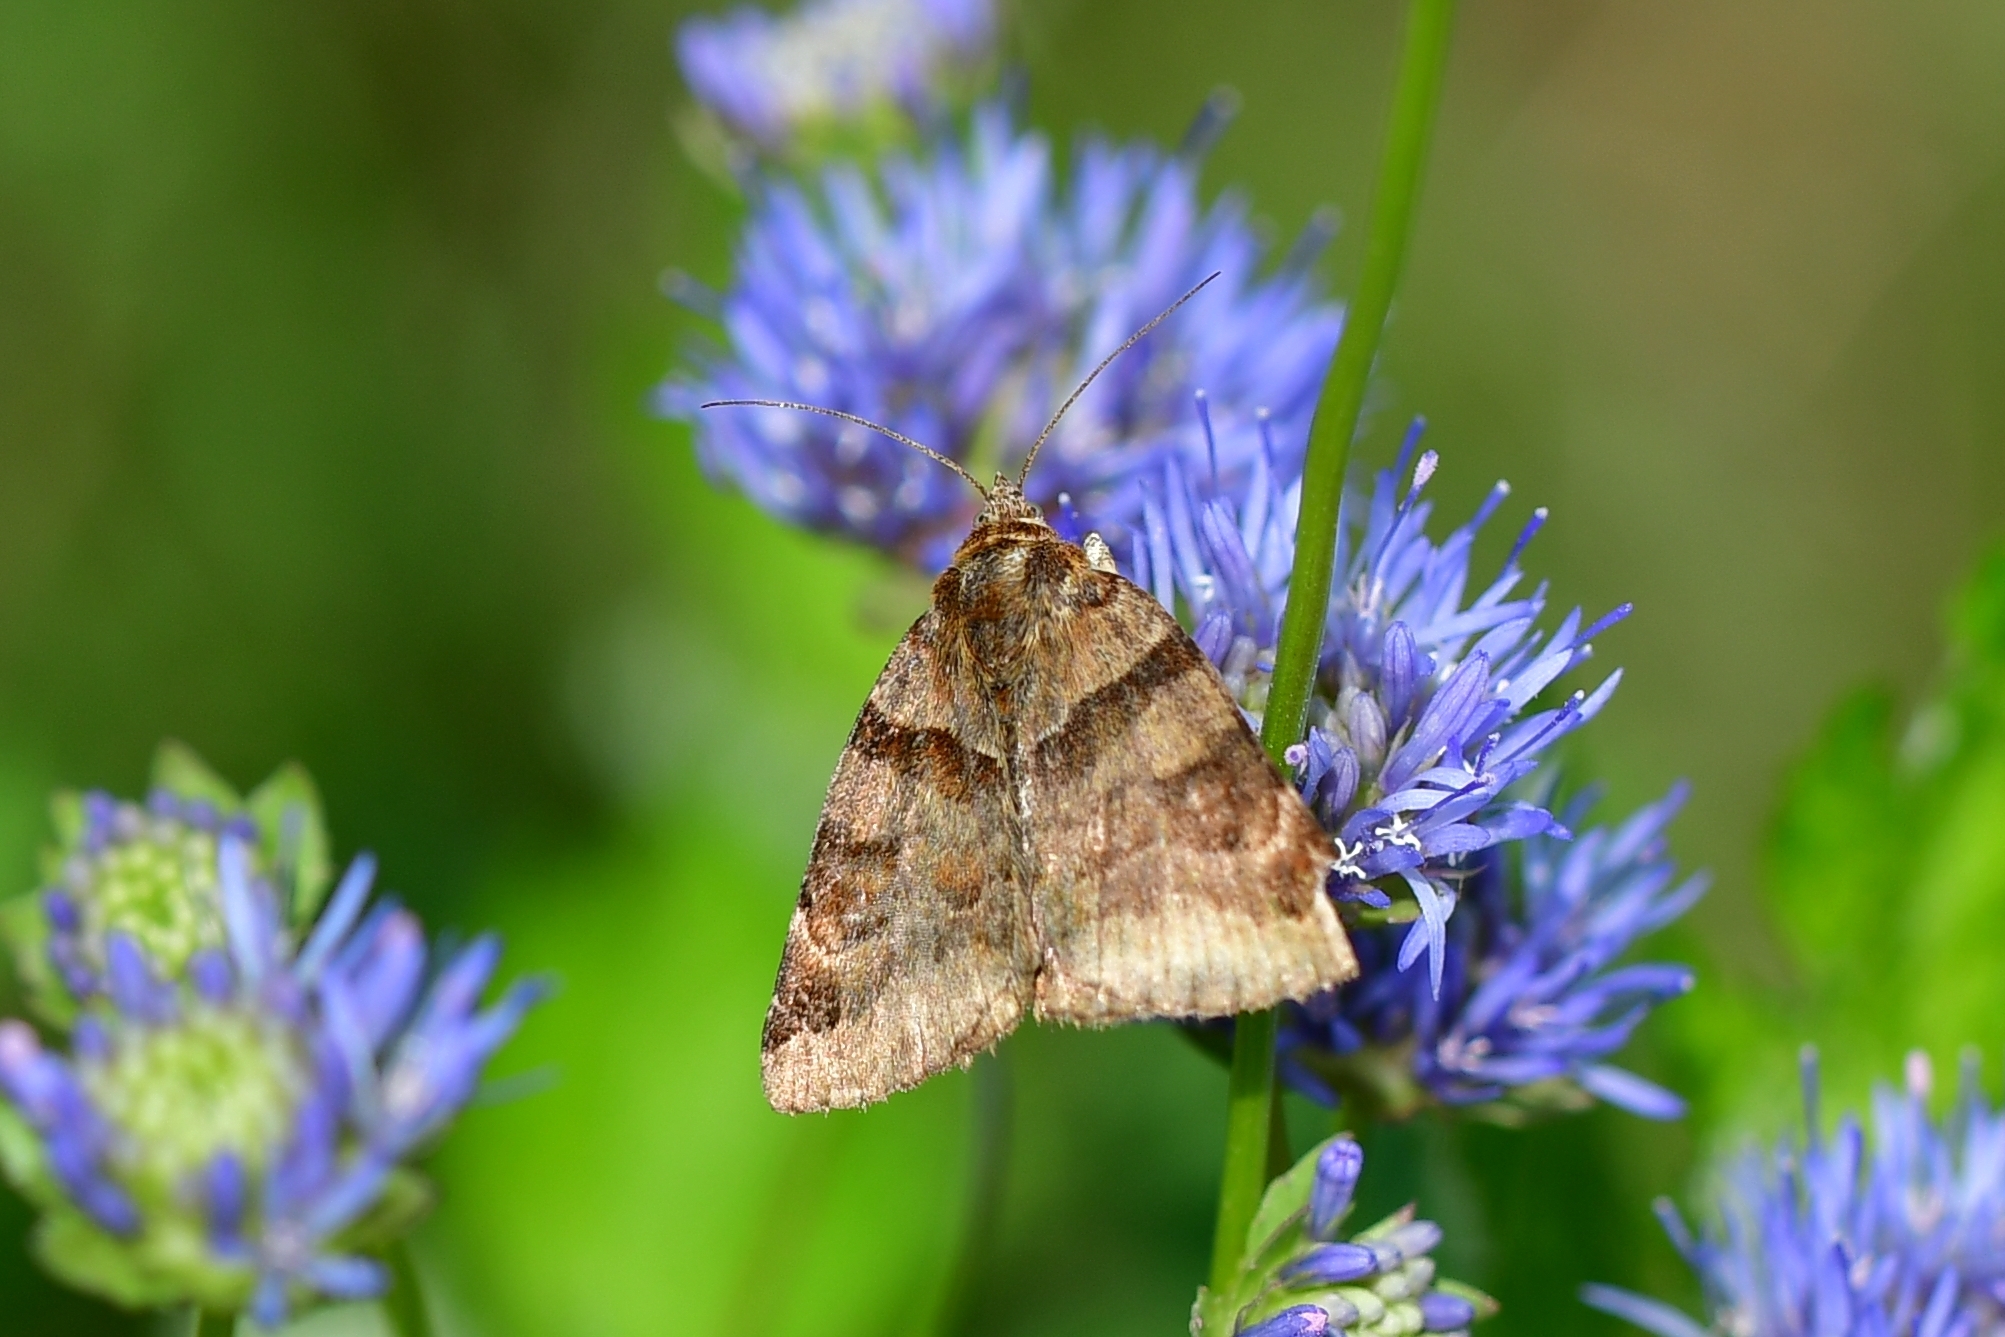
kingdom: Animalia
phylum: Arthropoda
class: Insecta
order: Lepidoptera
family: Erebidae
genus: Euclidia
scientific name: Euclidia glyphica
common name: Burnet companion
